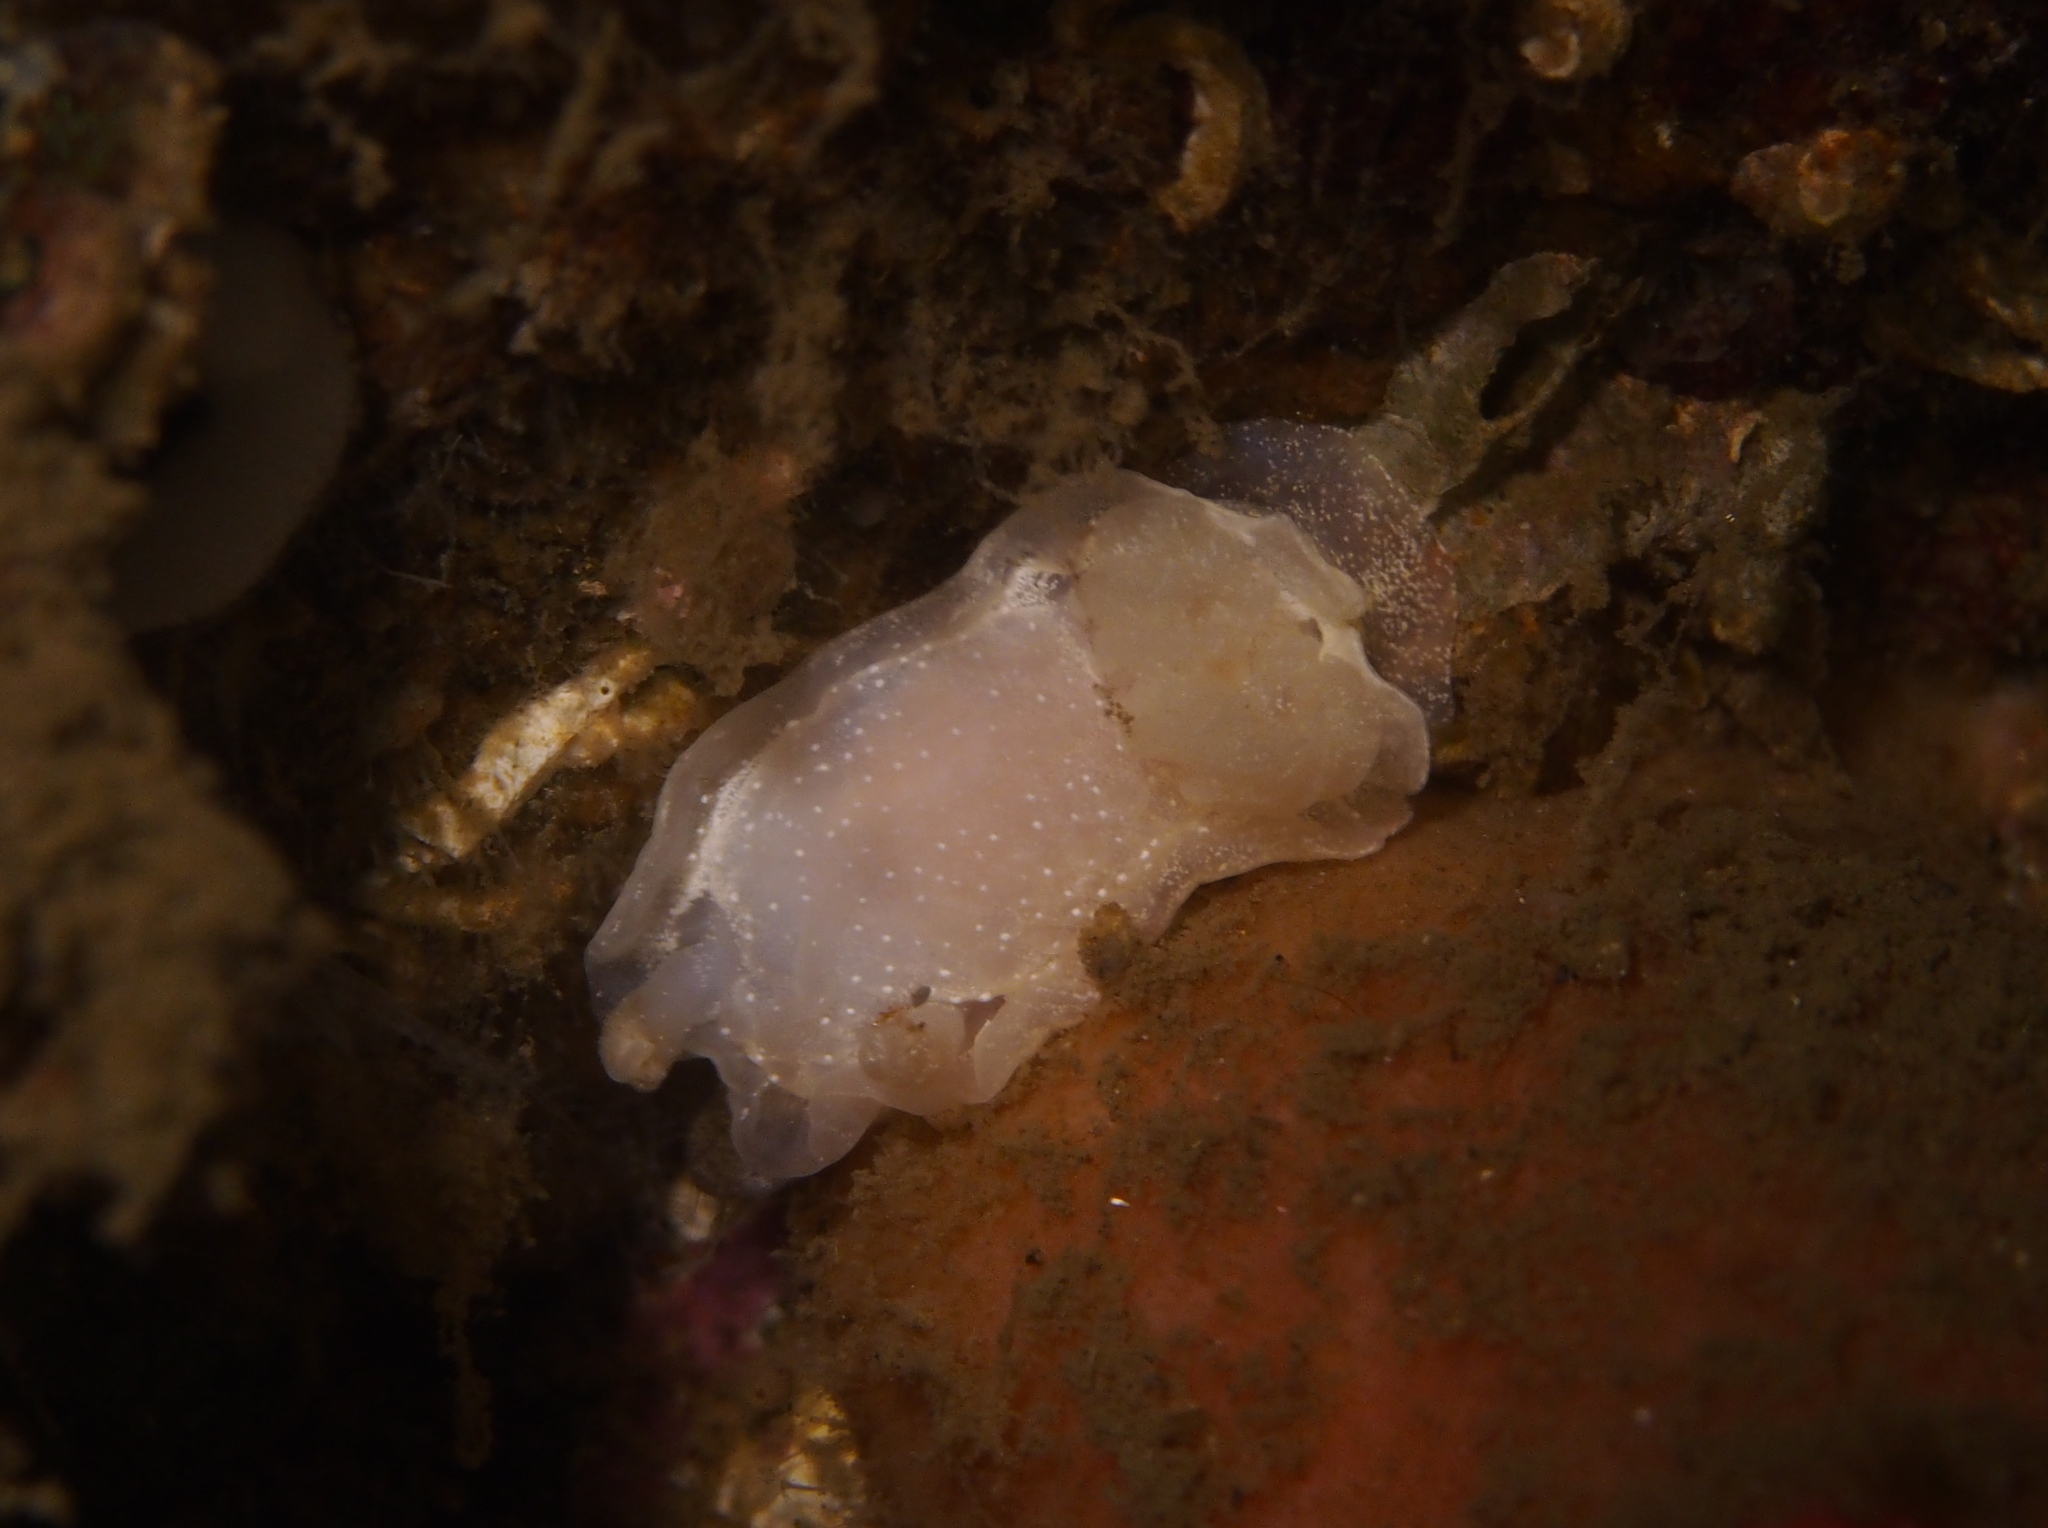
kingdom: Animalia
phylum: Mollusca
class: Gastropoda
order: Nudibranchia
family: Goniodorididae
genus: Okenia
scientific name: Okenia
